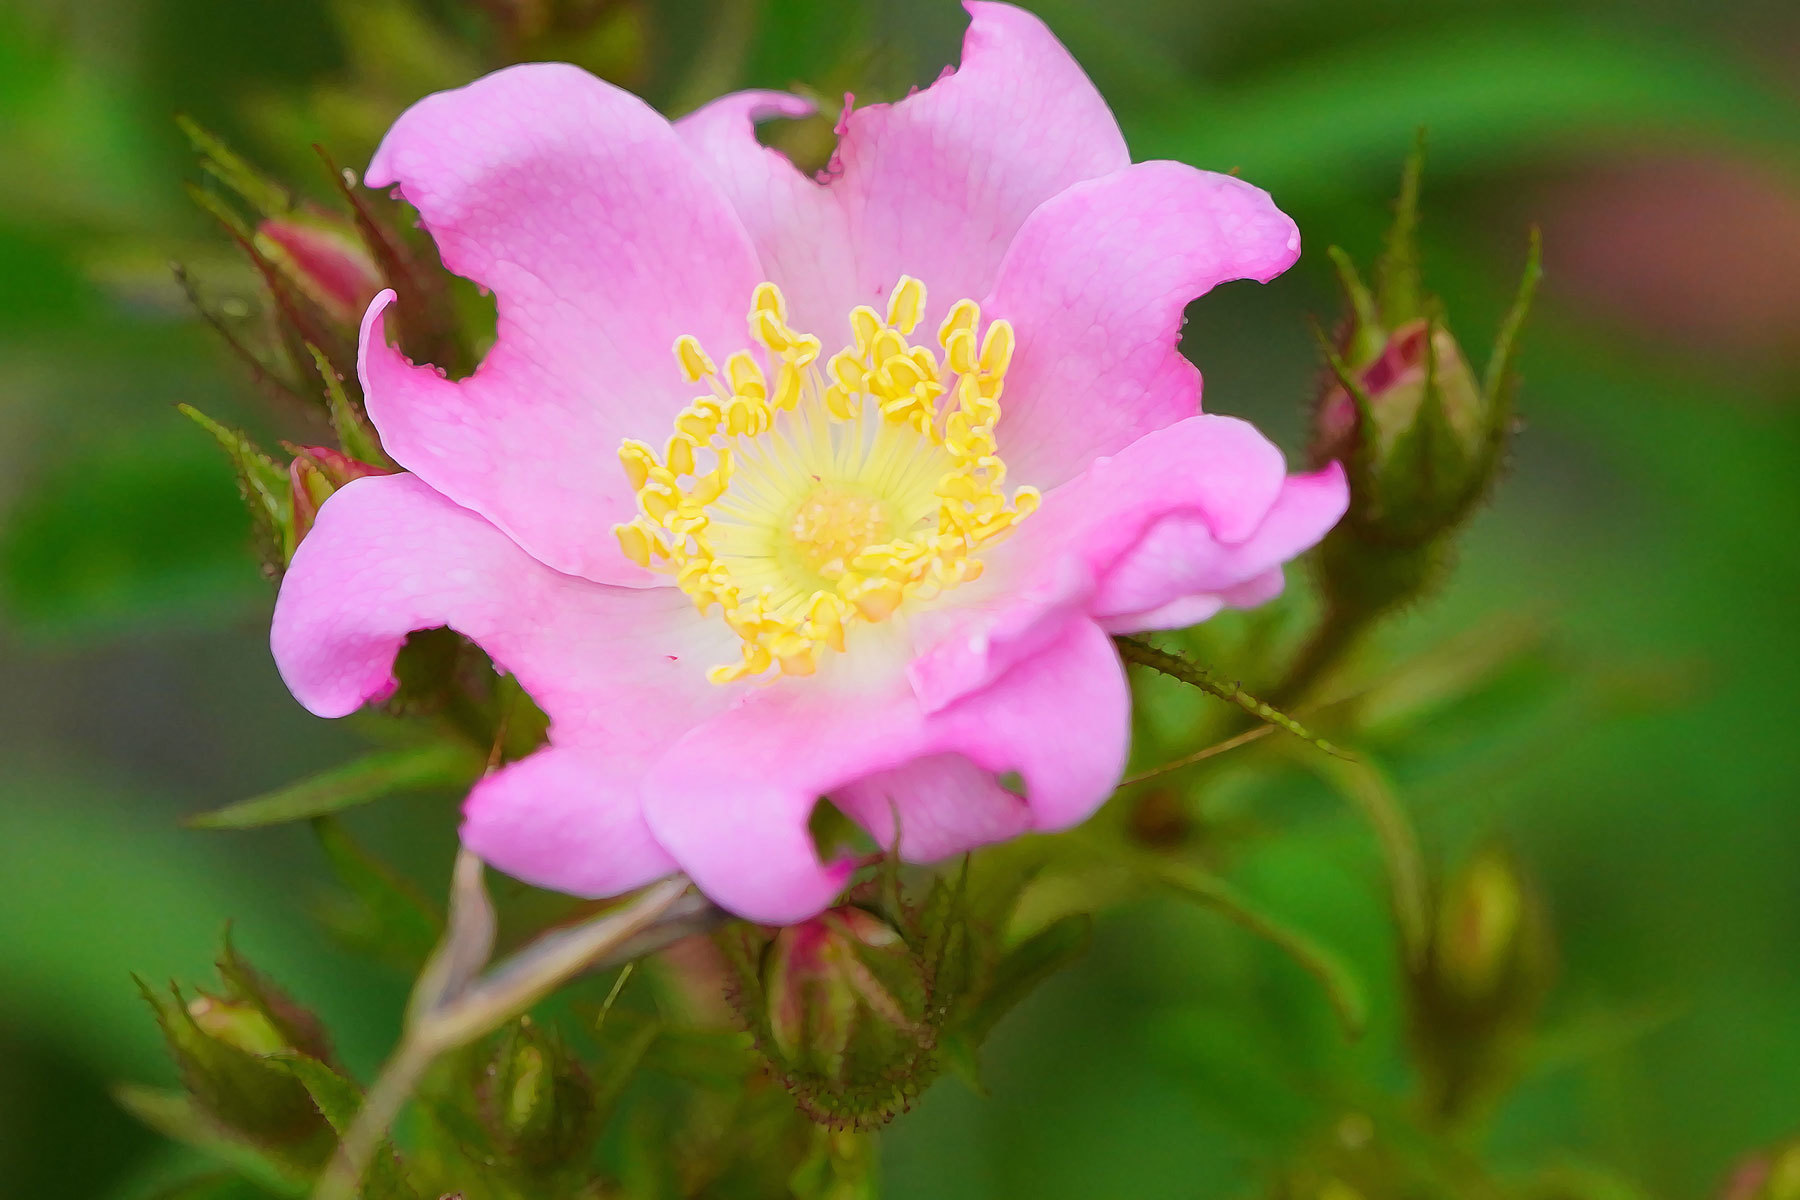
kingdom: Plantae
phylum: Tracheophyta
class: Magnoliopsida
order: Rosales
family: Rosaceae
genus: Rosa
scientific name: Rosa californica
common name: California rose
